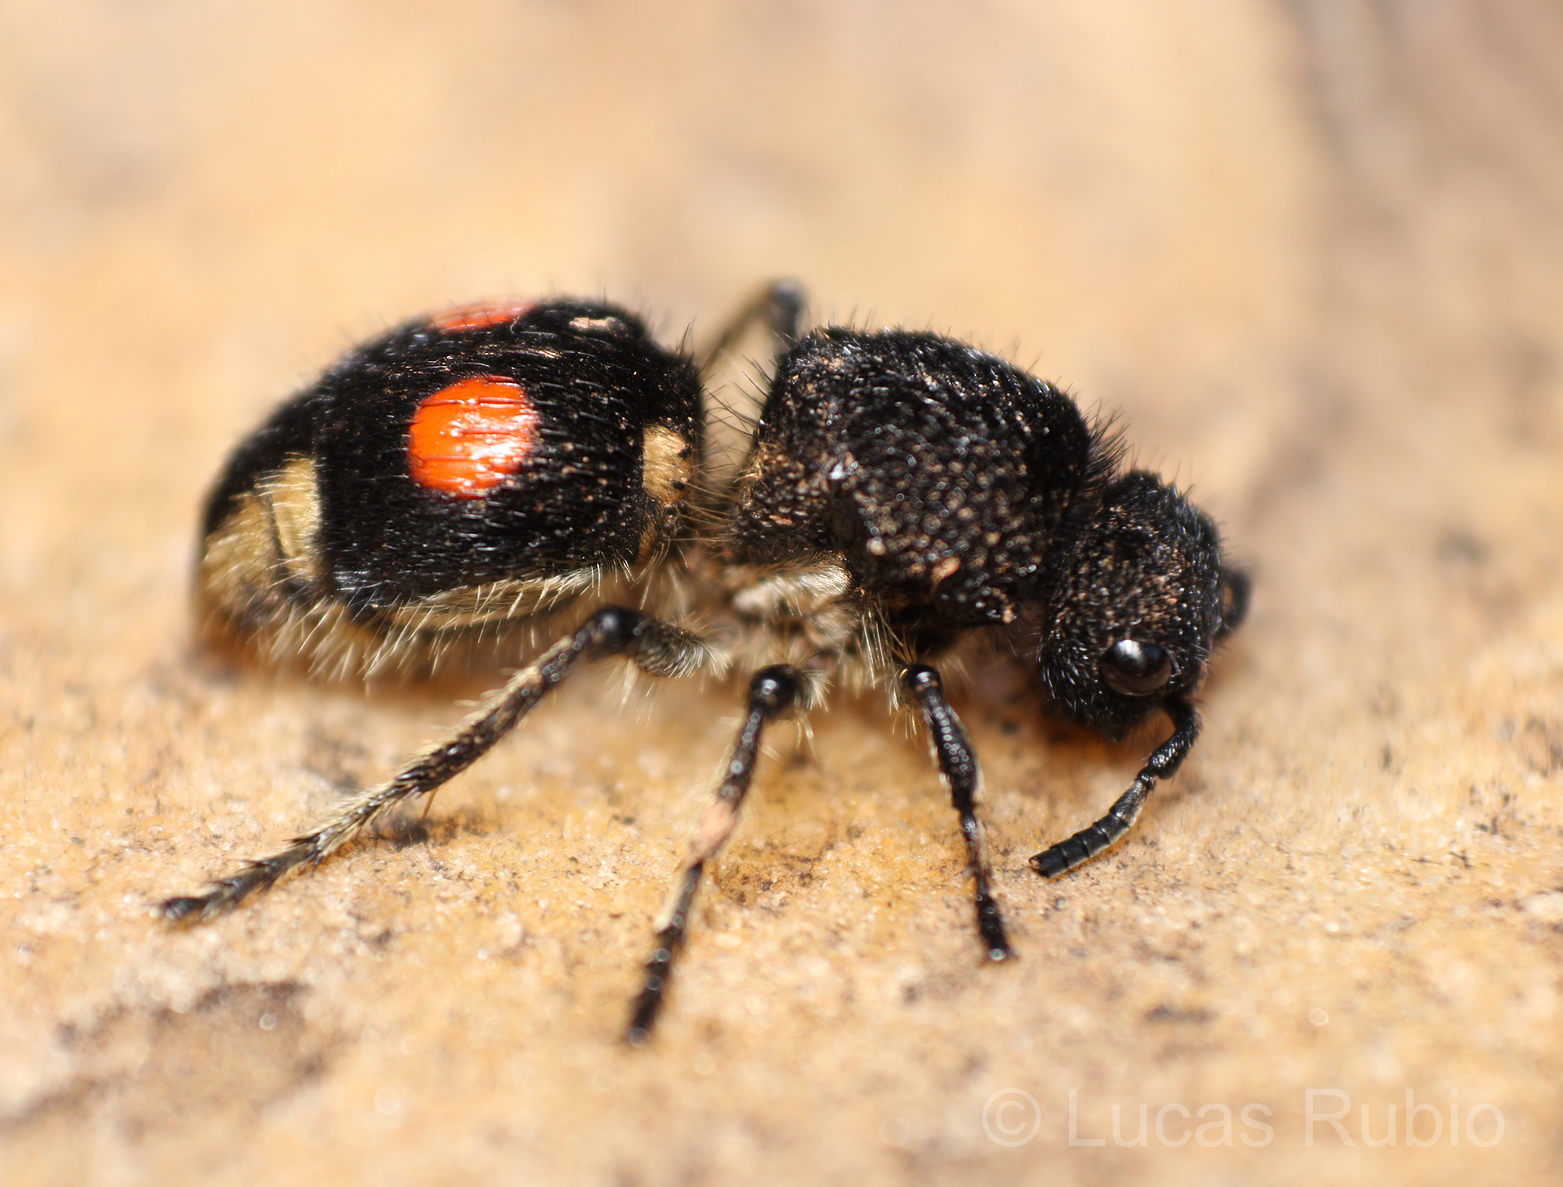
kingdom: Animalia
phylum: Arthropoda
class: Insecta
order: Hymenoptera
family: Mutillidae
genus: Hoplomutilla
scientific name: Hoplomutilla
